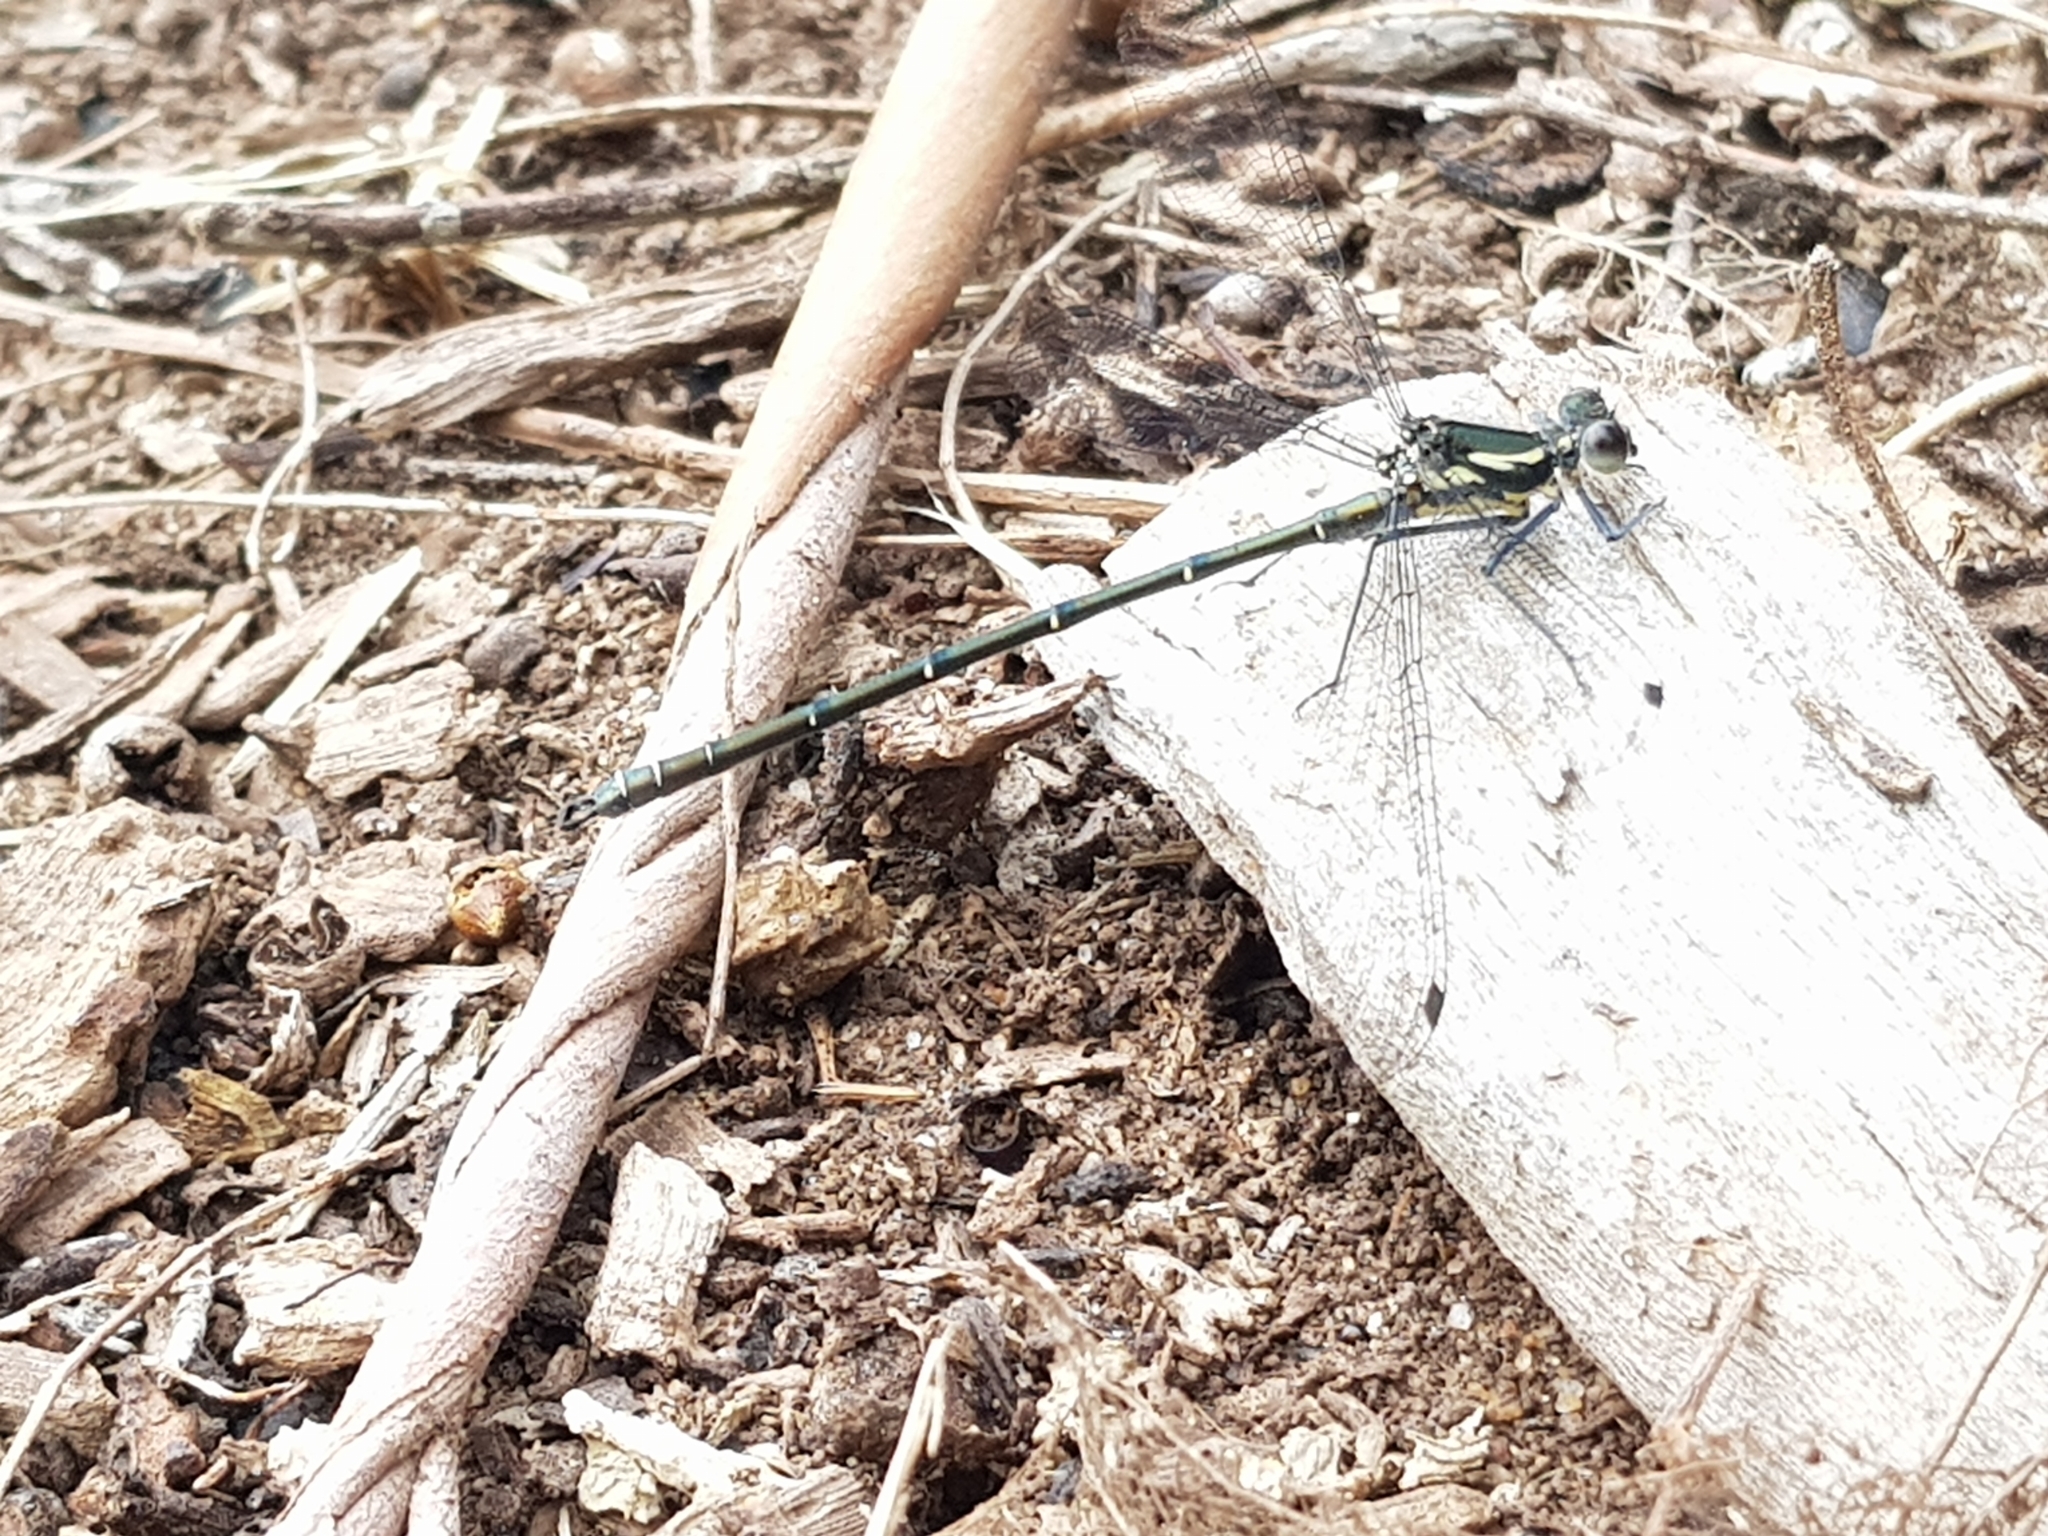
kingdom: Animalia
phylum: Arthropoda
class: Insecta
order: Odonata
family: Argiolestidae
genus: Austroargiolestes
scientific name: Austroargiolestes icteromelas
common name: Common flatwing
